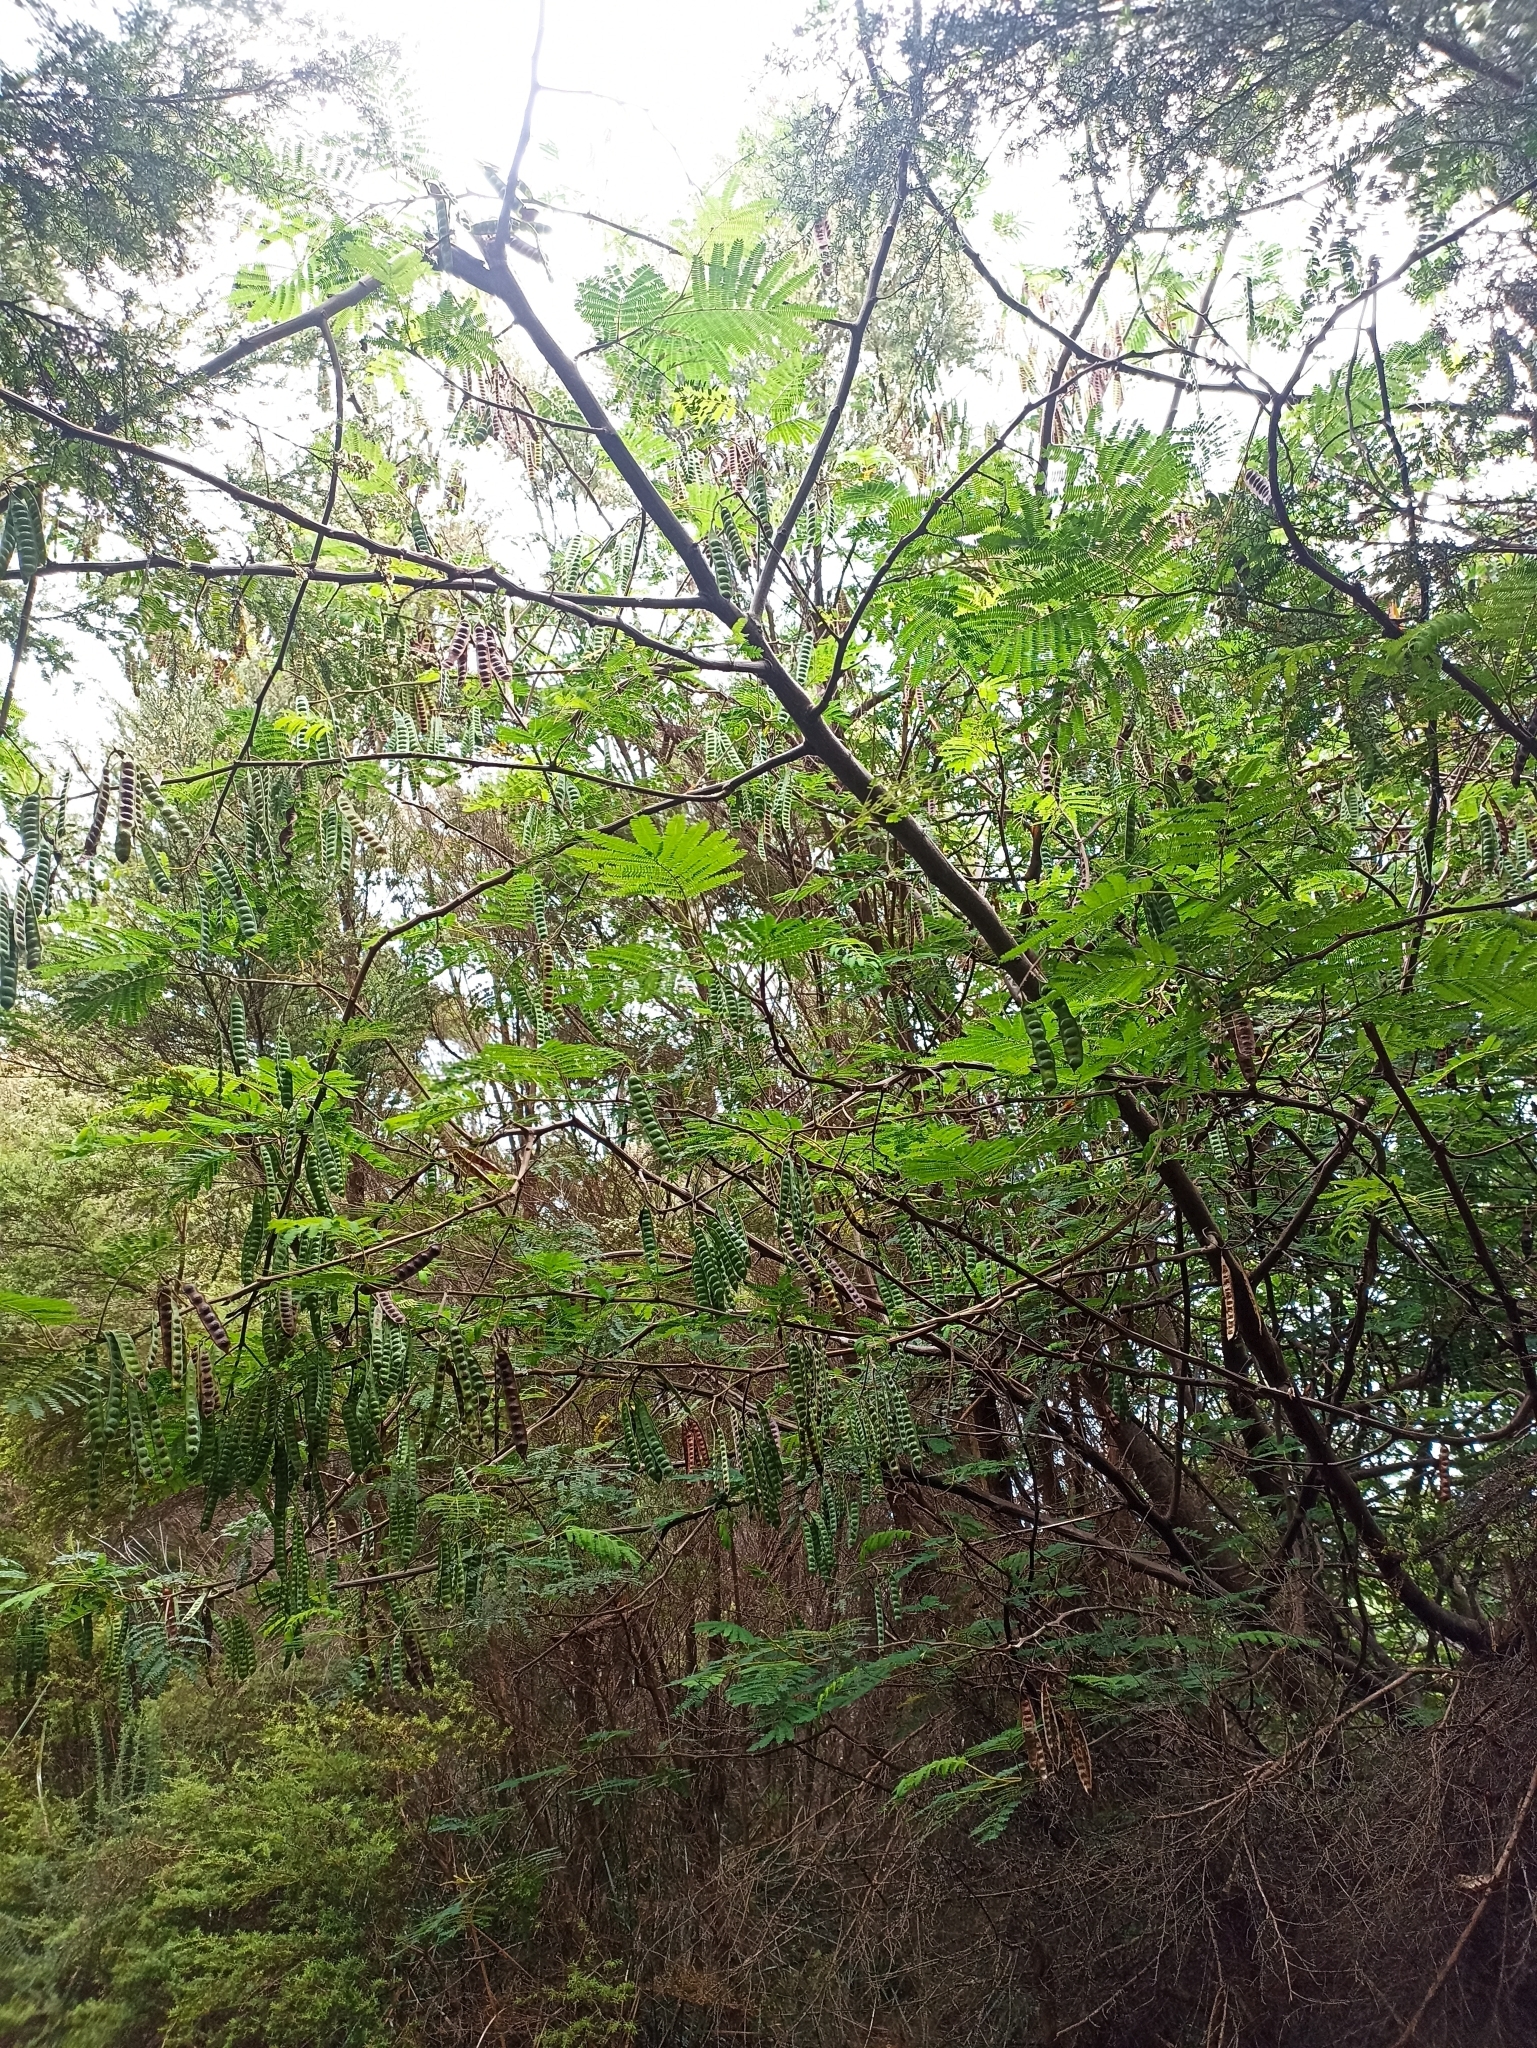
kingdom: Plantae
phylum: Tracheophyta
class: Magnoliopsida
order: Fabales
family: Fabaceae
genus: Paraserianthes
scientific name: Paraserianthes lophantha
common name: Plume albizia
